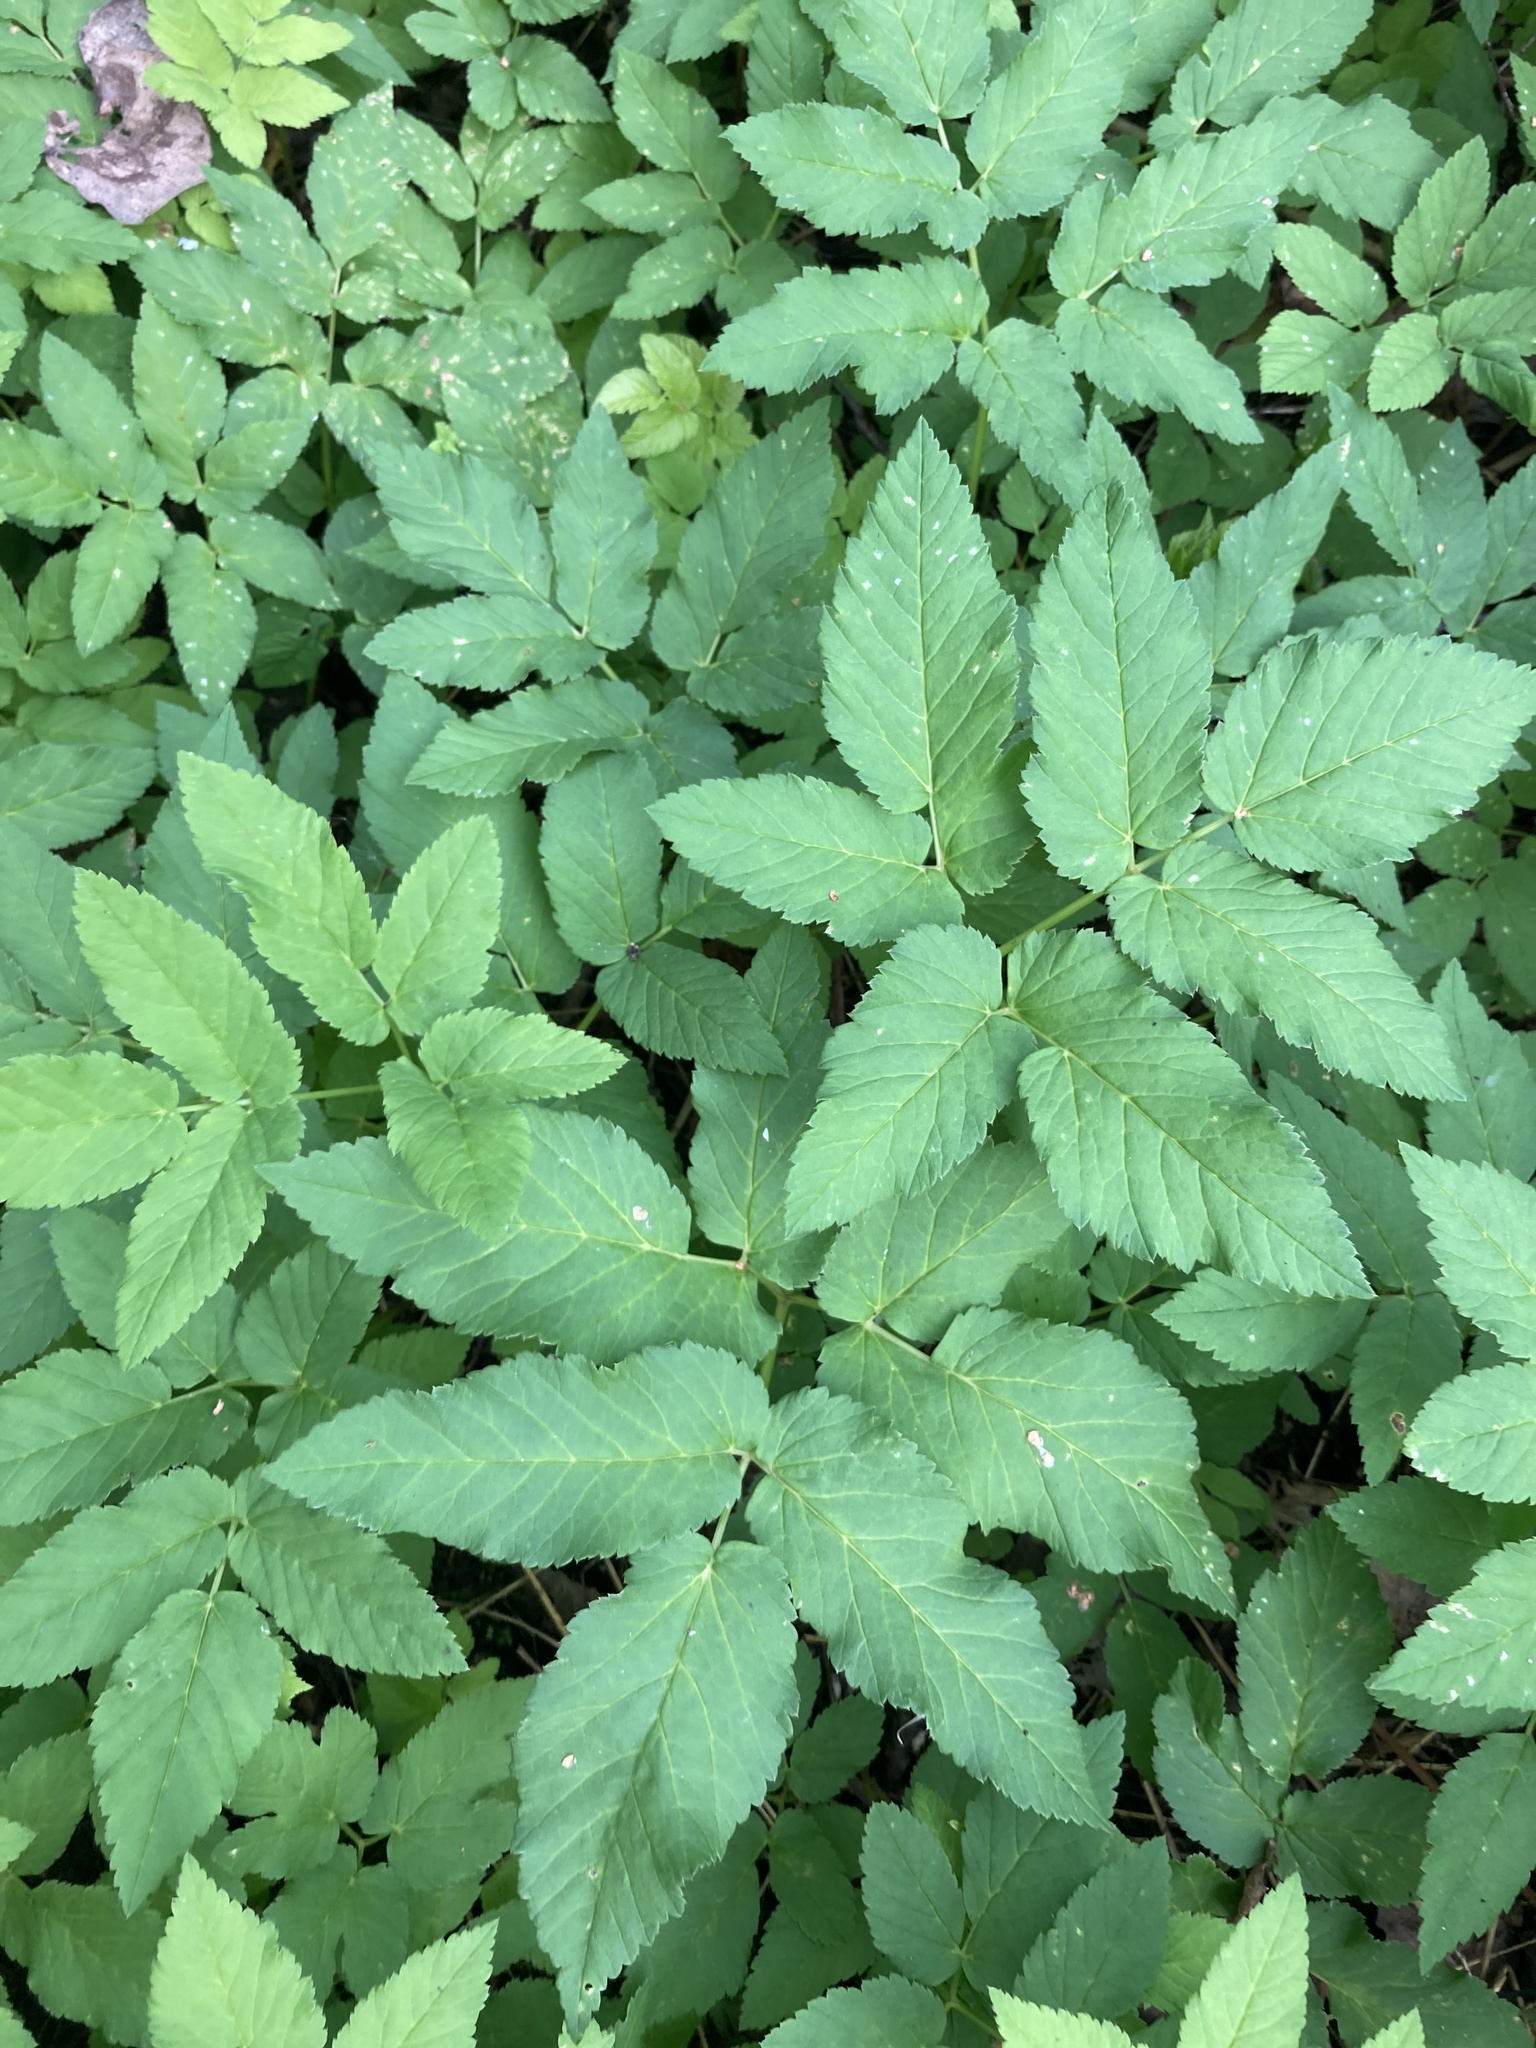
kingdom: Plantae
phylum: Tracheophyta
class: Magnoliopsida
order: Apiales
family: Apiaceae
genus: Aegopodium
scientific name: Aegopodium podagraria
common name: Ground-elder
